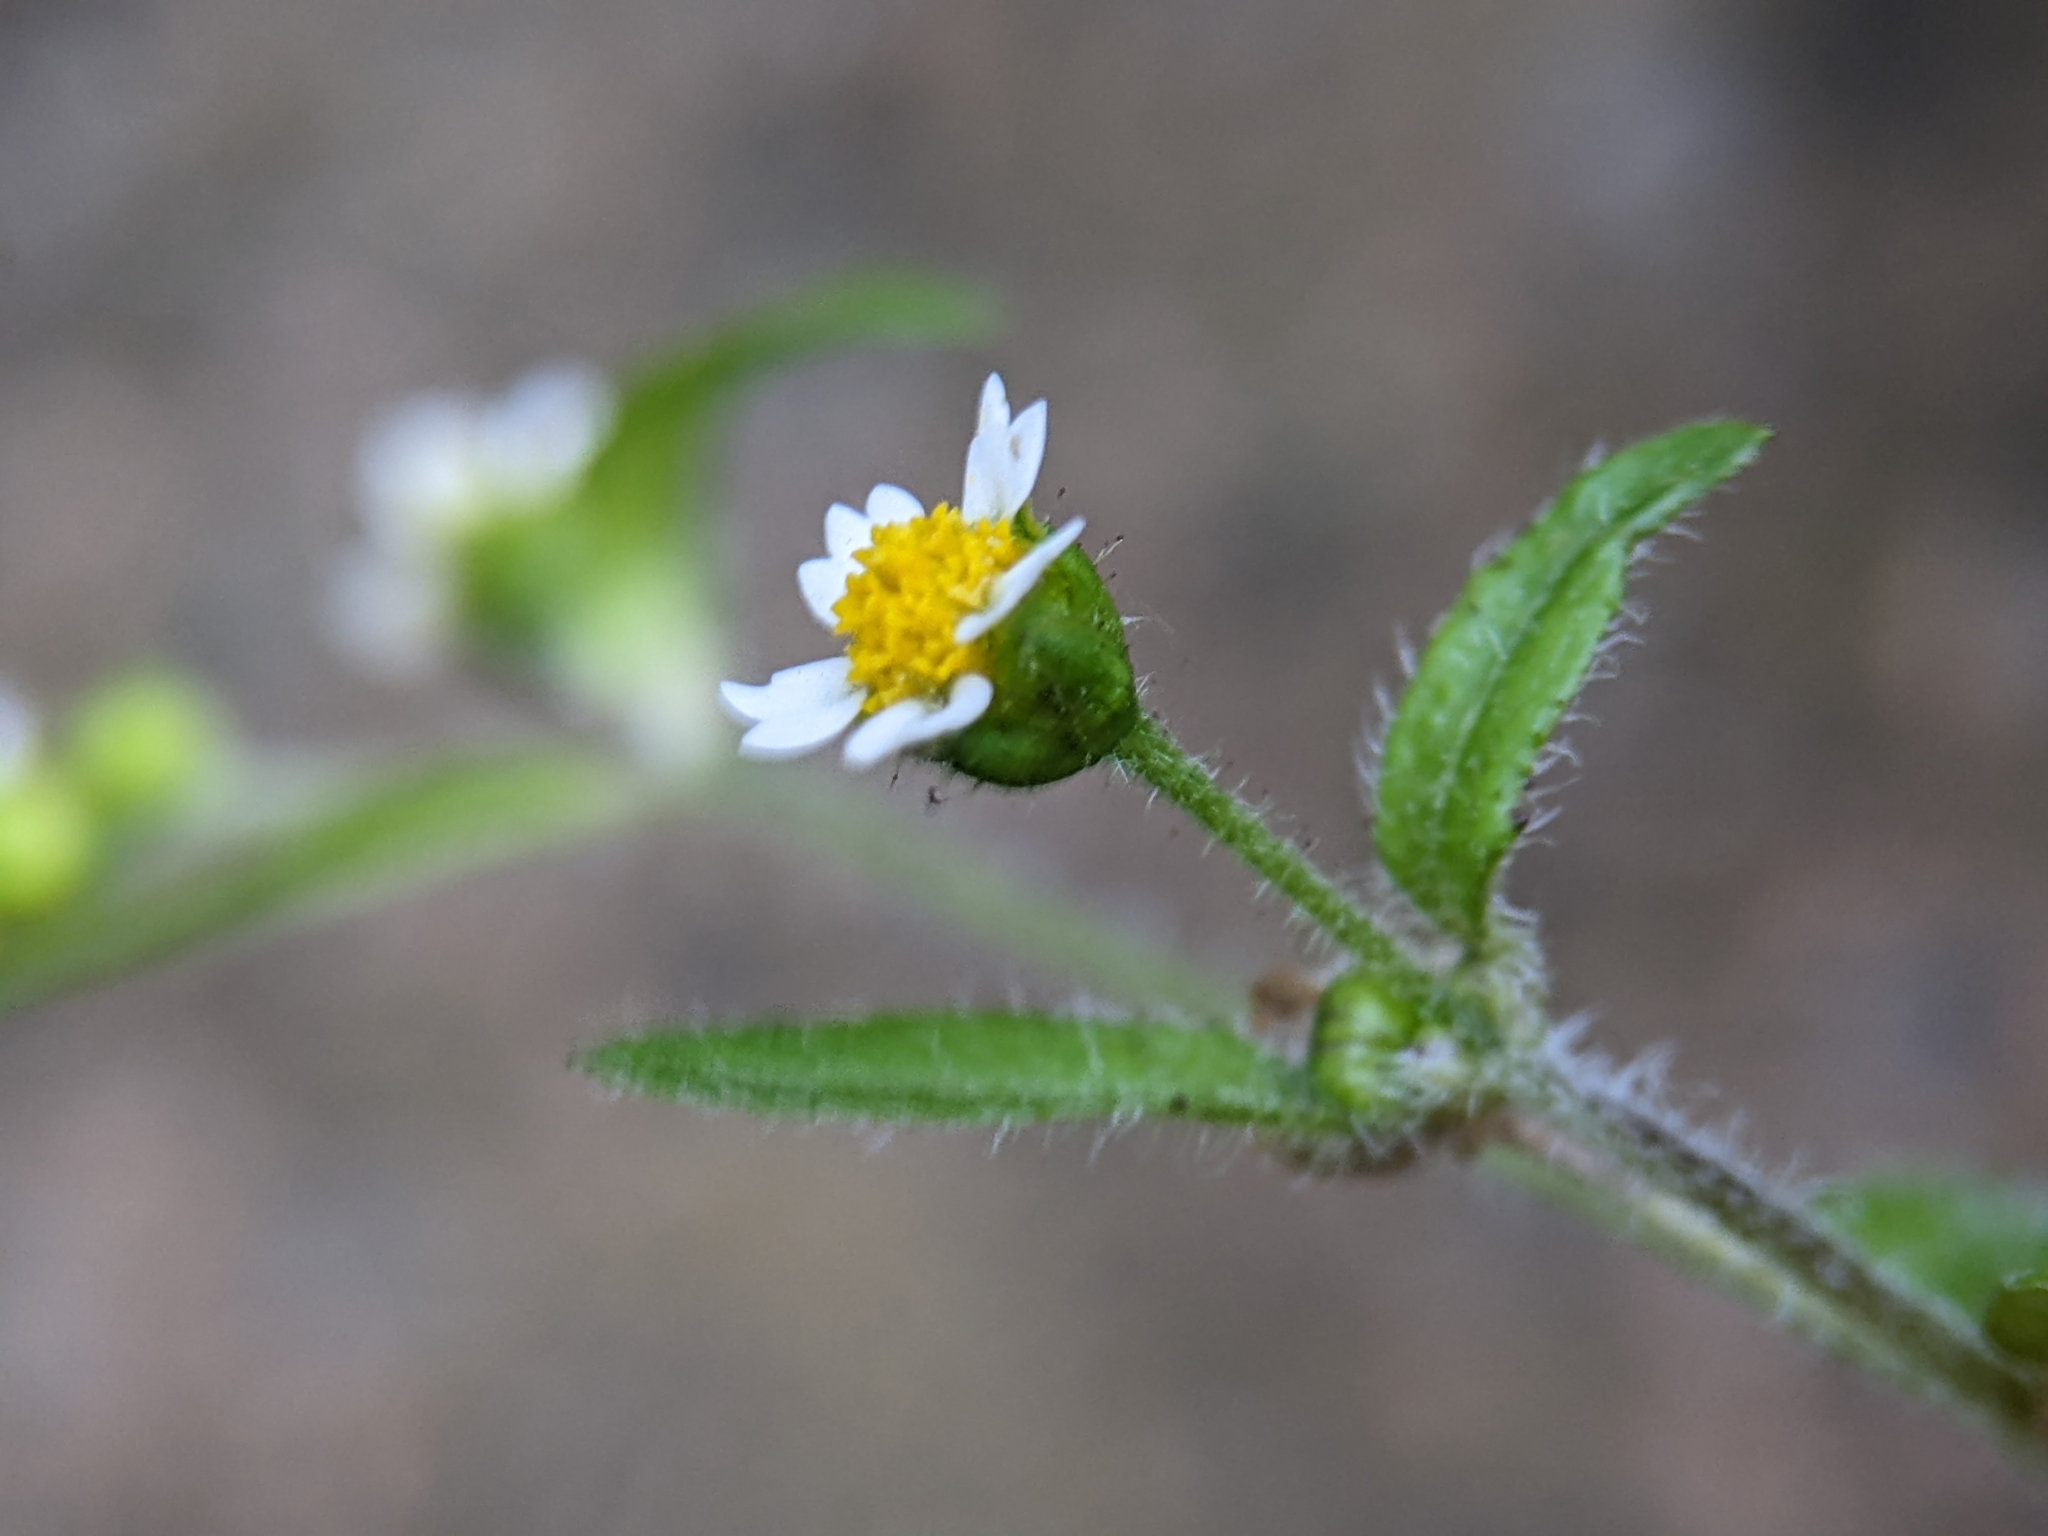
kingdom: Plantae
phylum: Tracheophyta
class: Magnoliopsida
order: Asterales
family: Asteraceae
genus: Galinsoga
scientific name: Galinsoga quadriradiata
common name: Shaggy soldier
